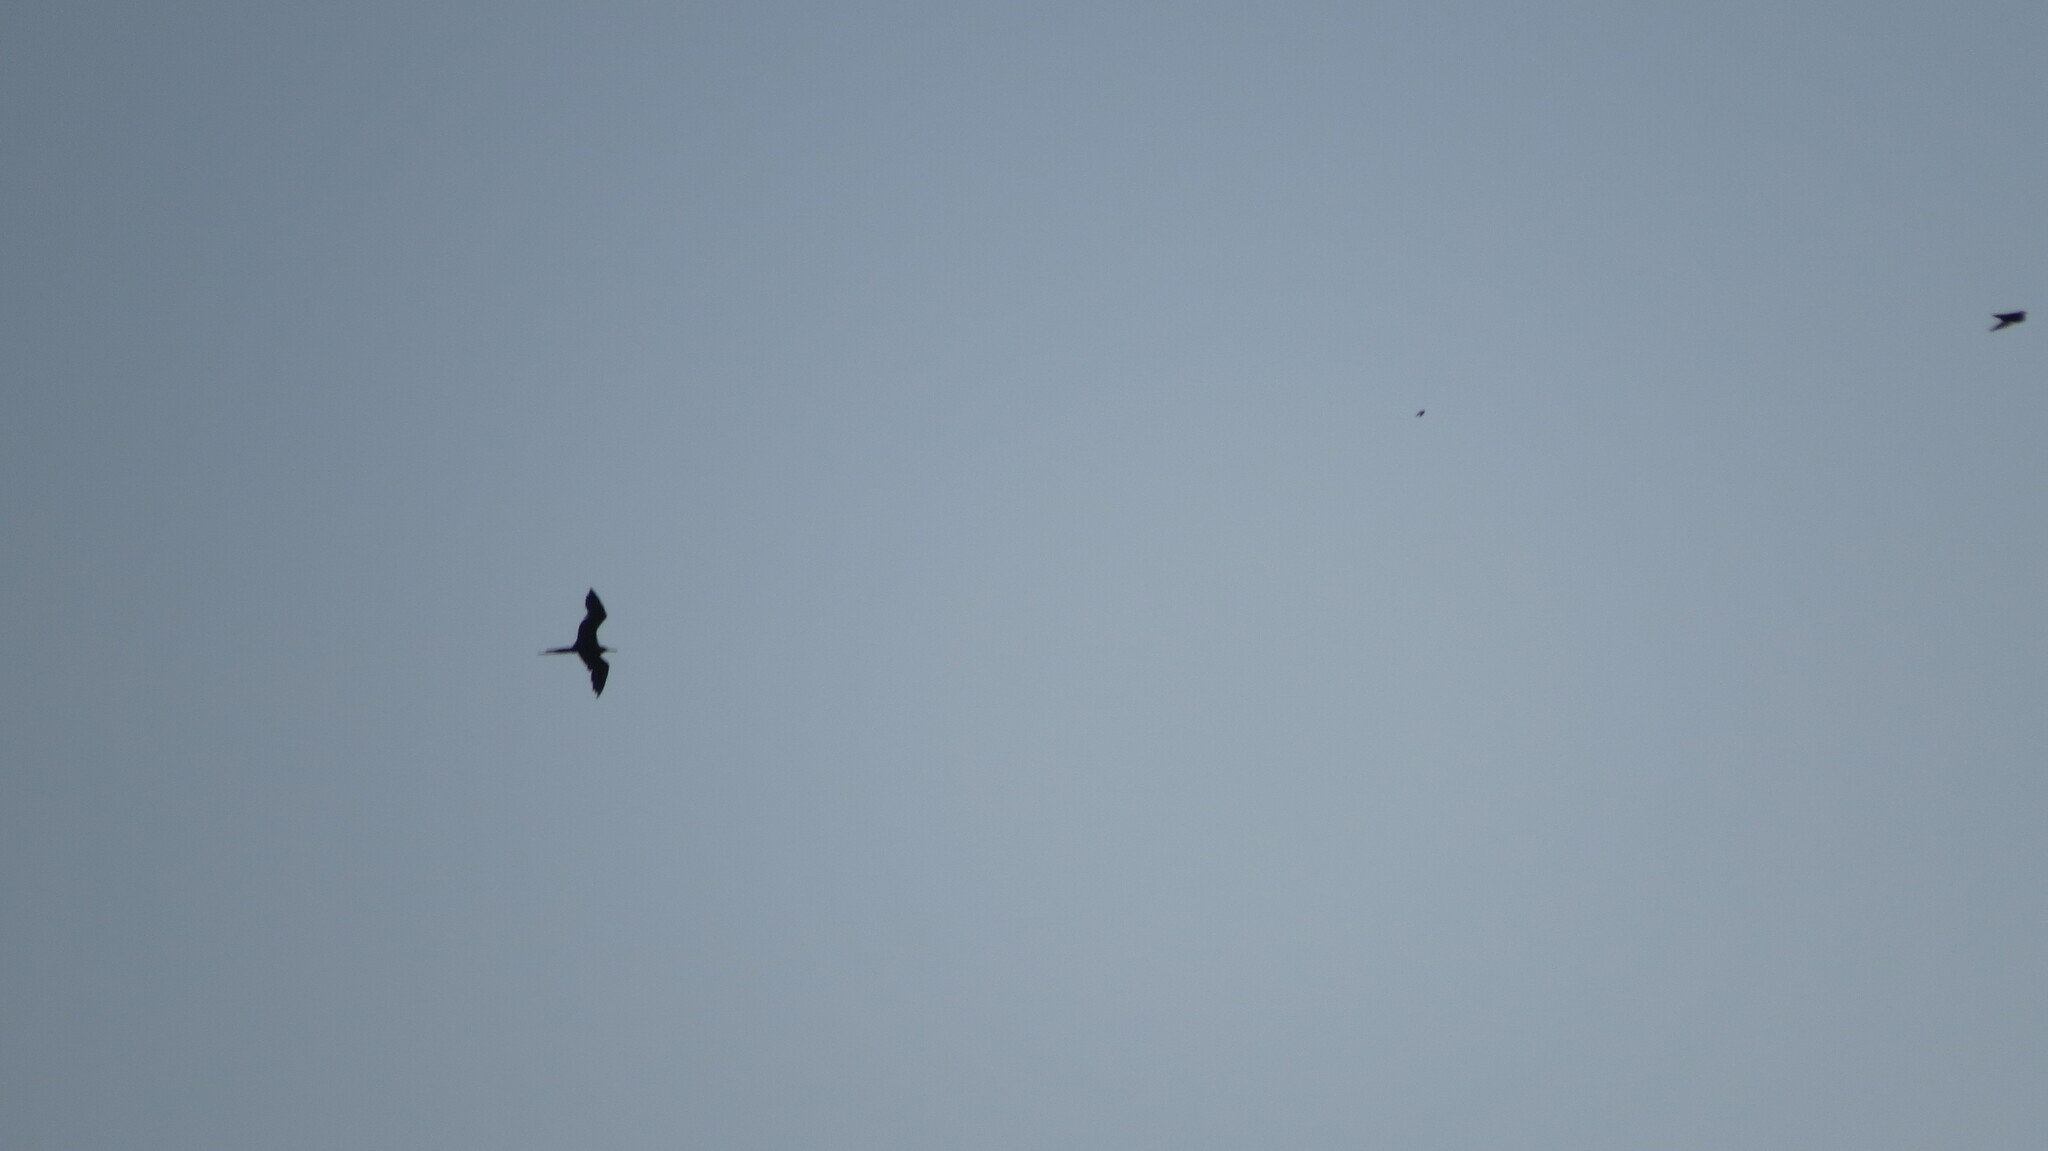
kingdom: Animalia
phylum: Chordata
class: Aves
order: Suliformes
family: Fregatidae
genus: Fregata
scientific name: Fregata magnificens
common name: Magnificent frigatebird
